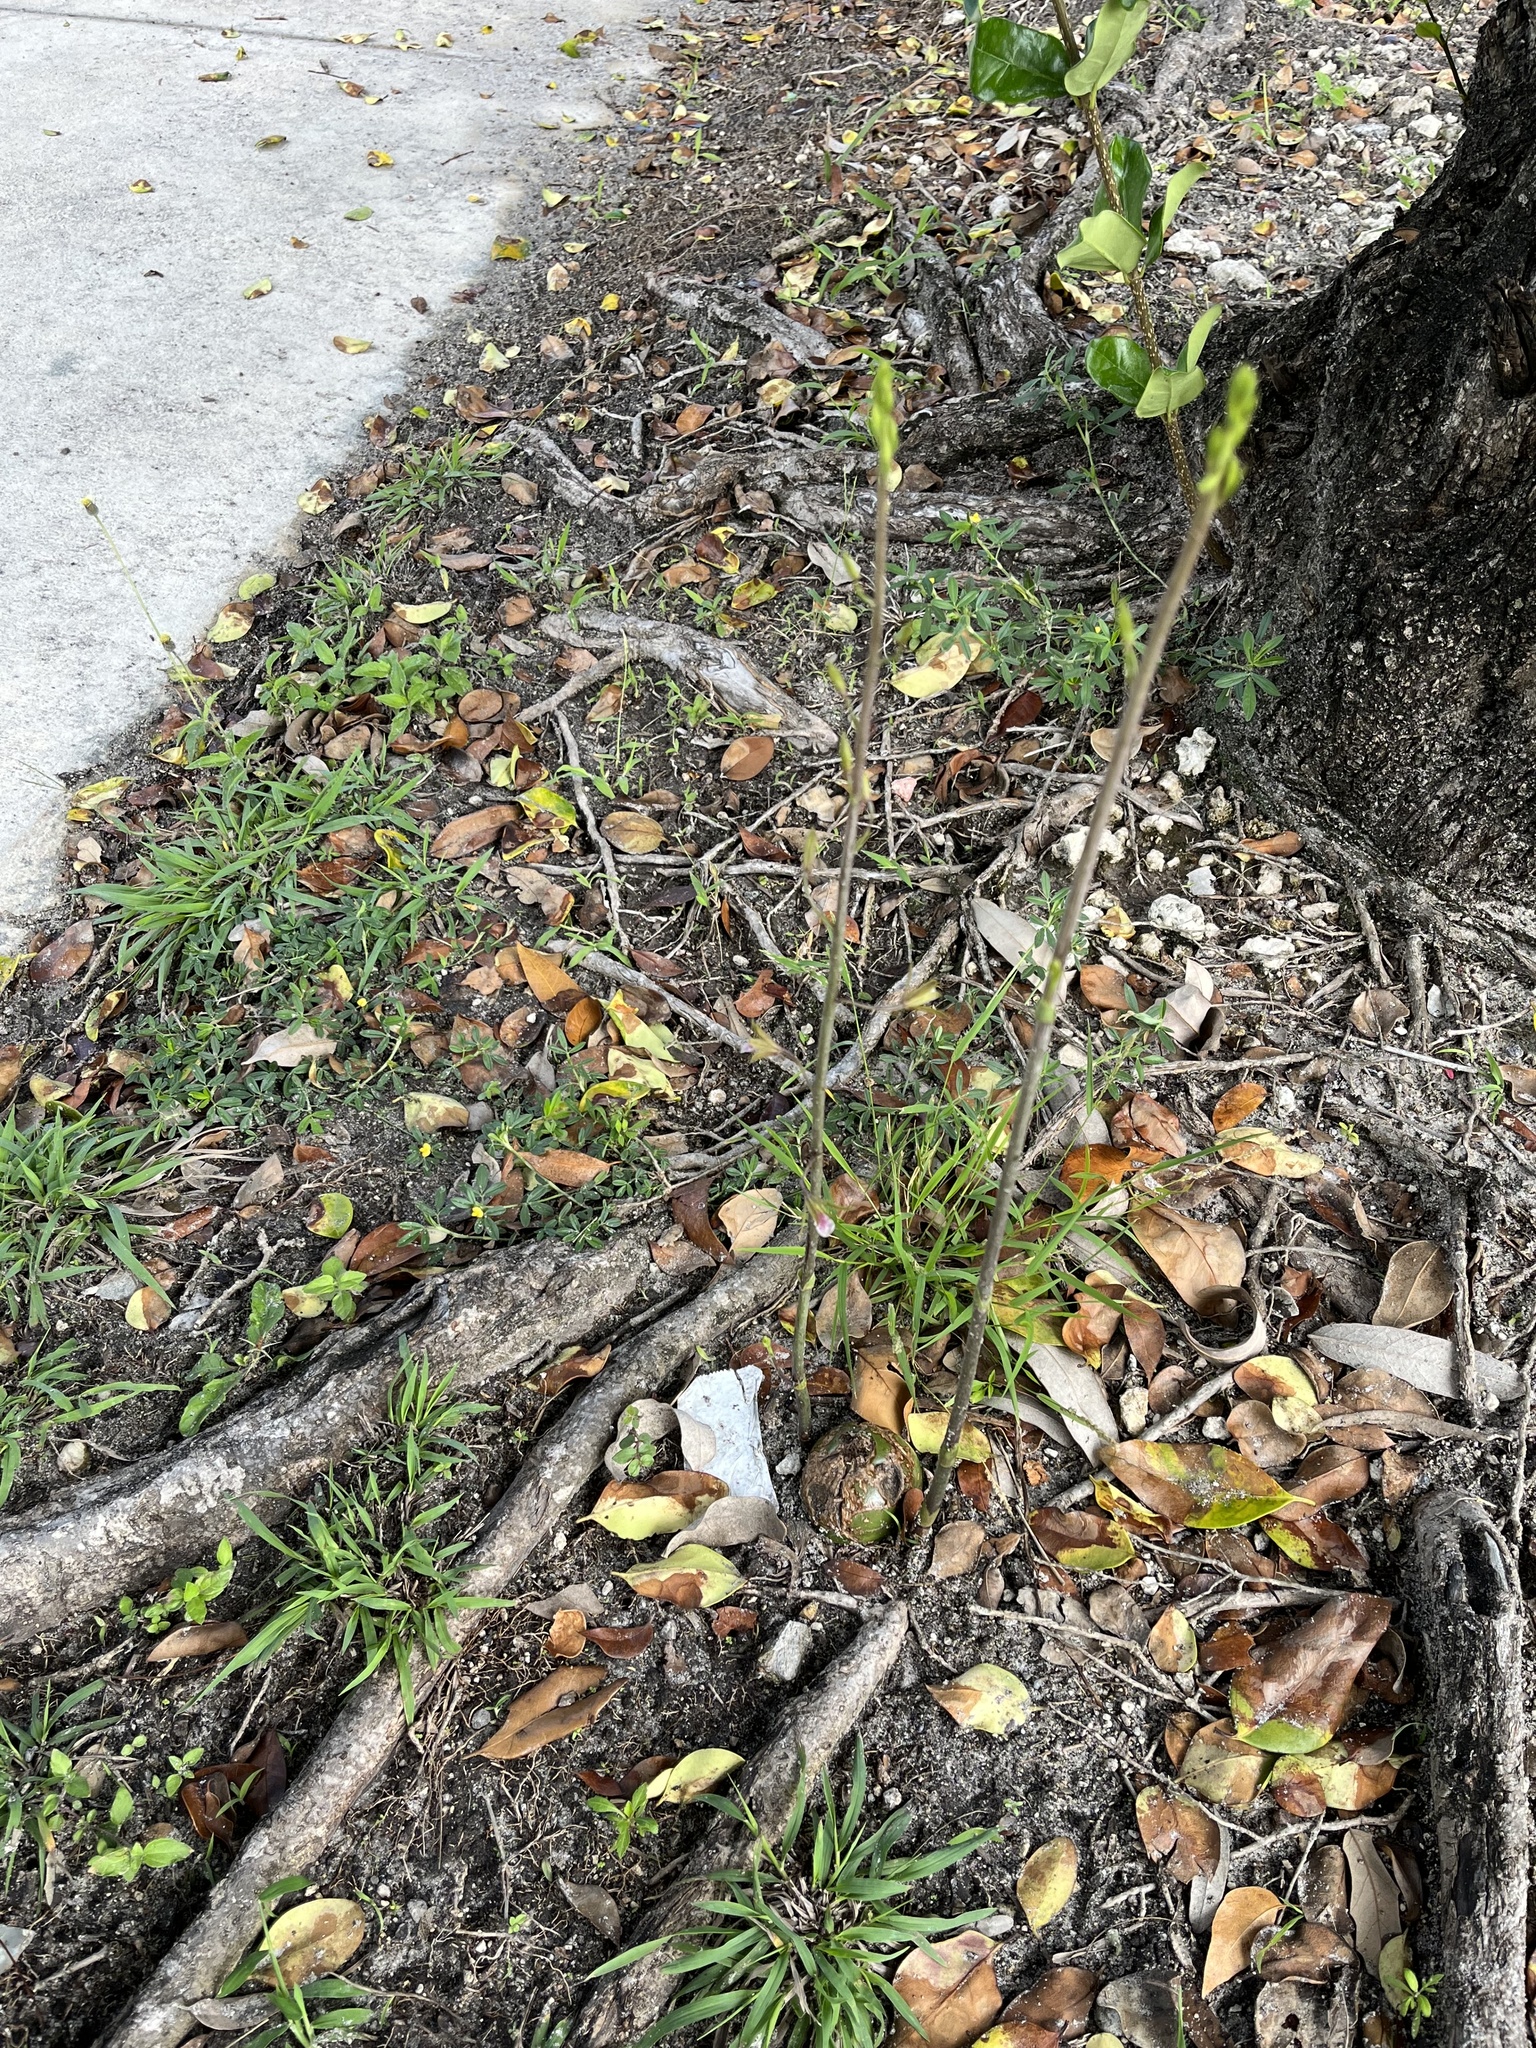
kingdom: Plantae
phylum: Tracheophyta
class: Liliopsida
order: Asparagales
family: Orchidaceae
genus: Eulophia
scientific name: Eulophia graminea
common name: Orchid
